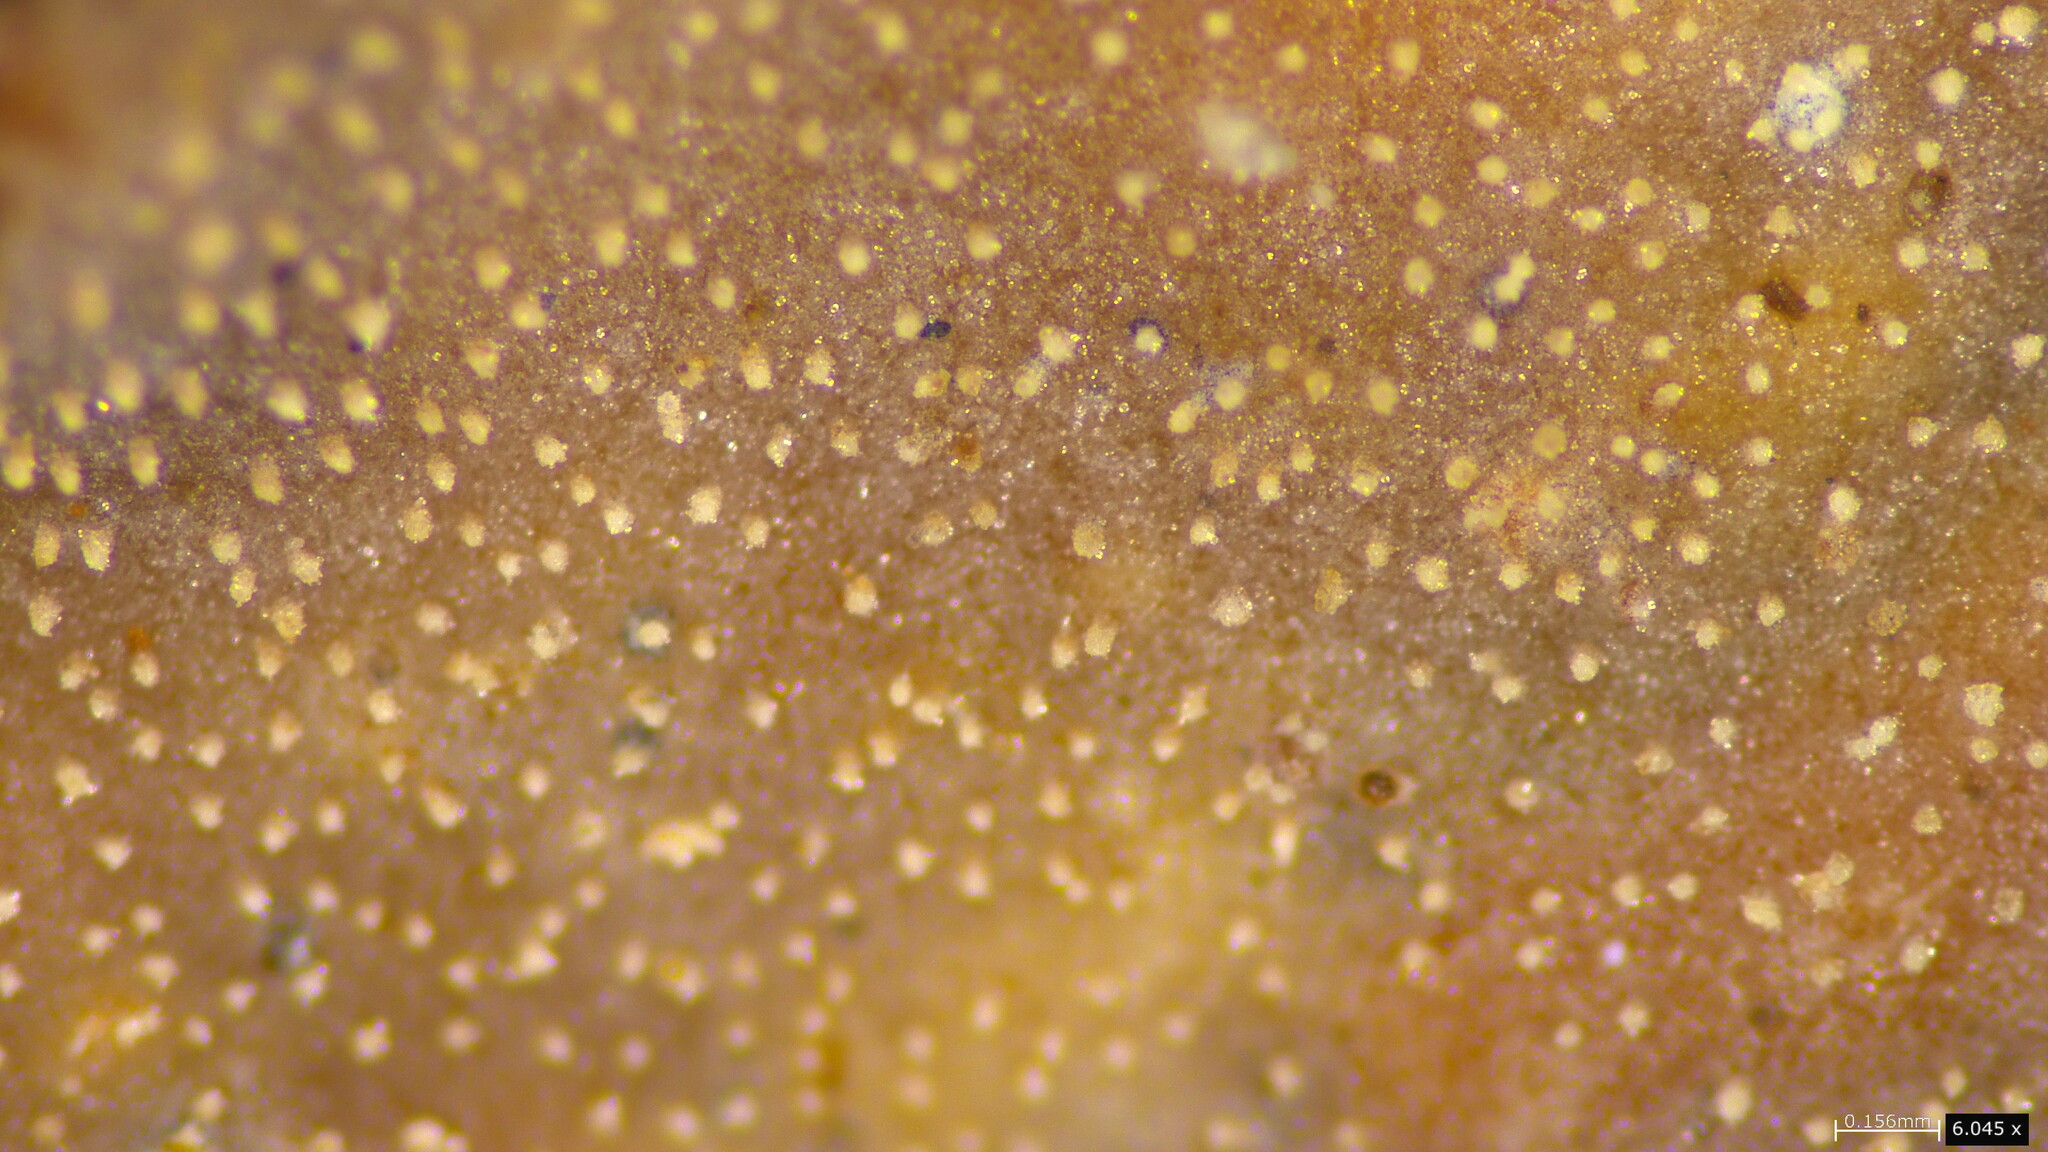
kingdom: Fungi
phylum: Basidiomycota
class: Agaricomycetes
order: Auriculariales
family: Auriculariaceae
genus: Heterochaete
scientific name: Heterochaete delicata
